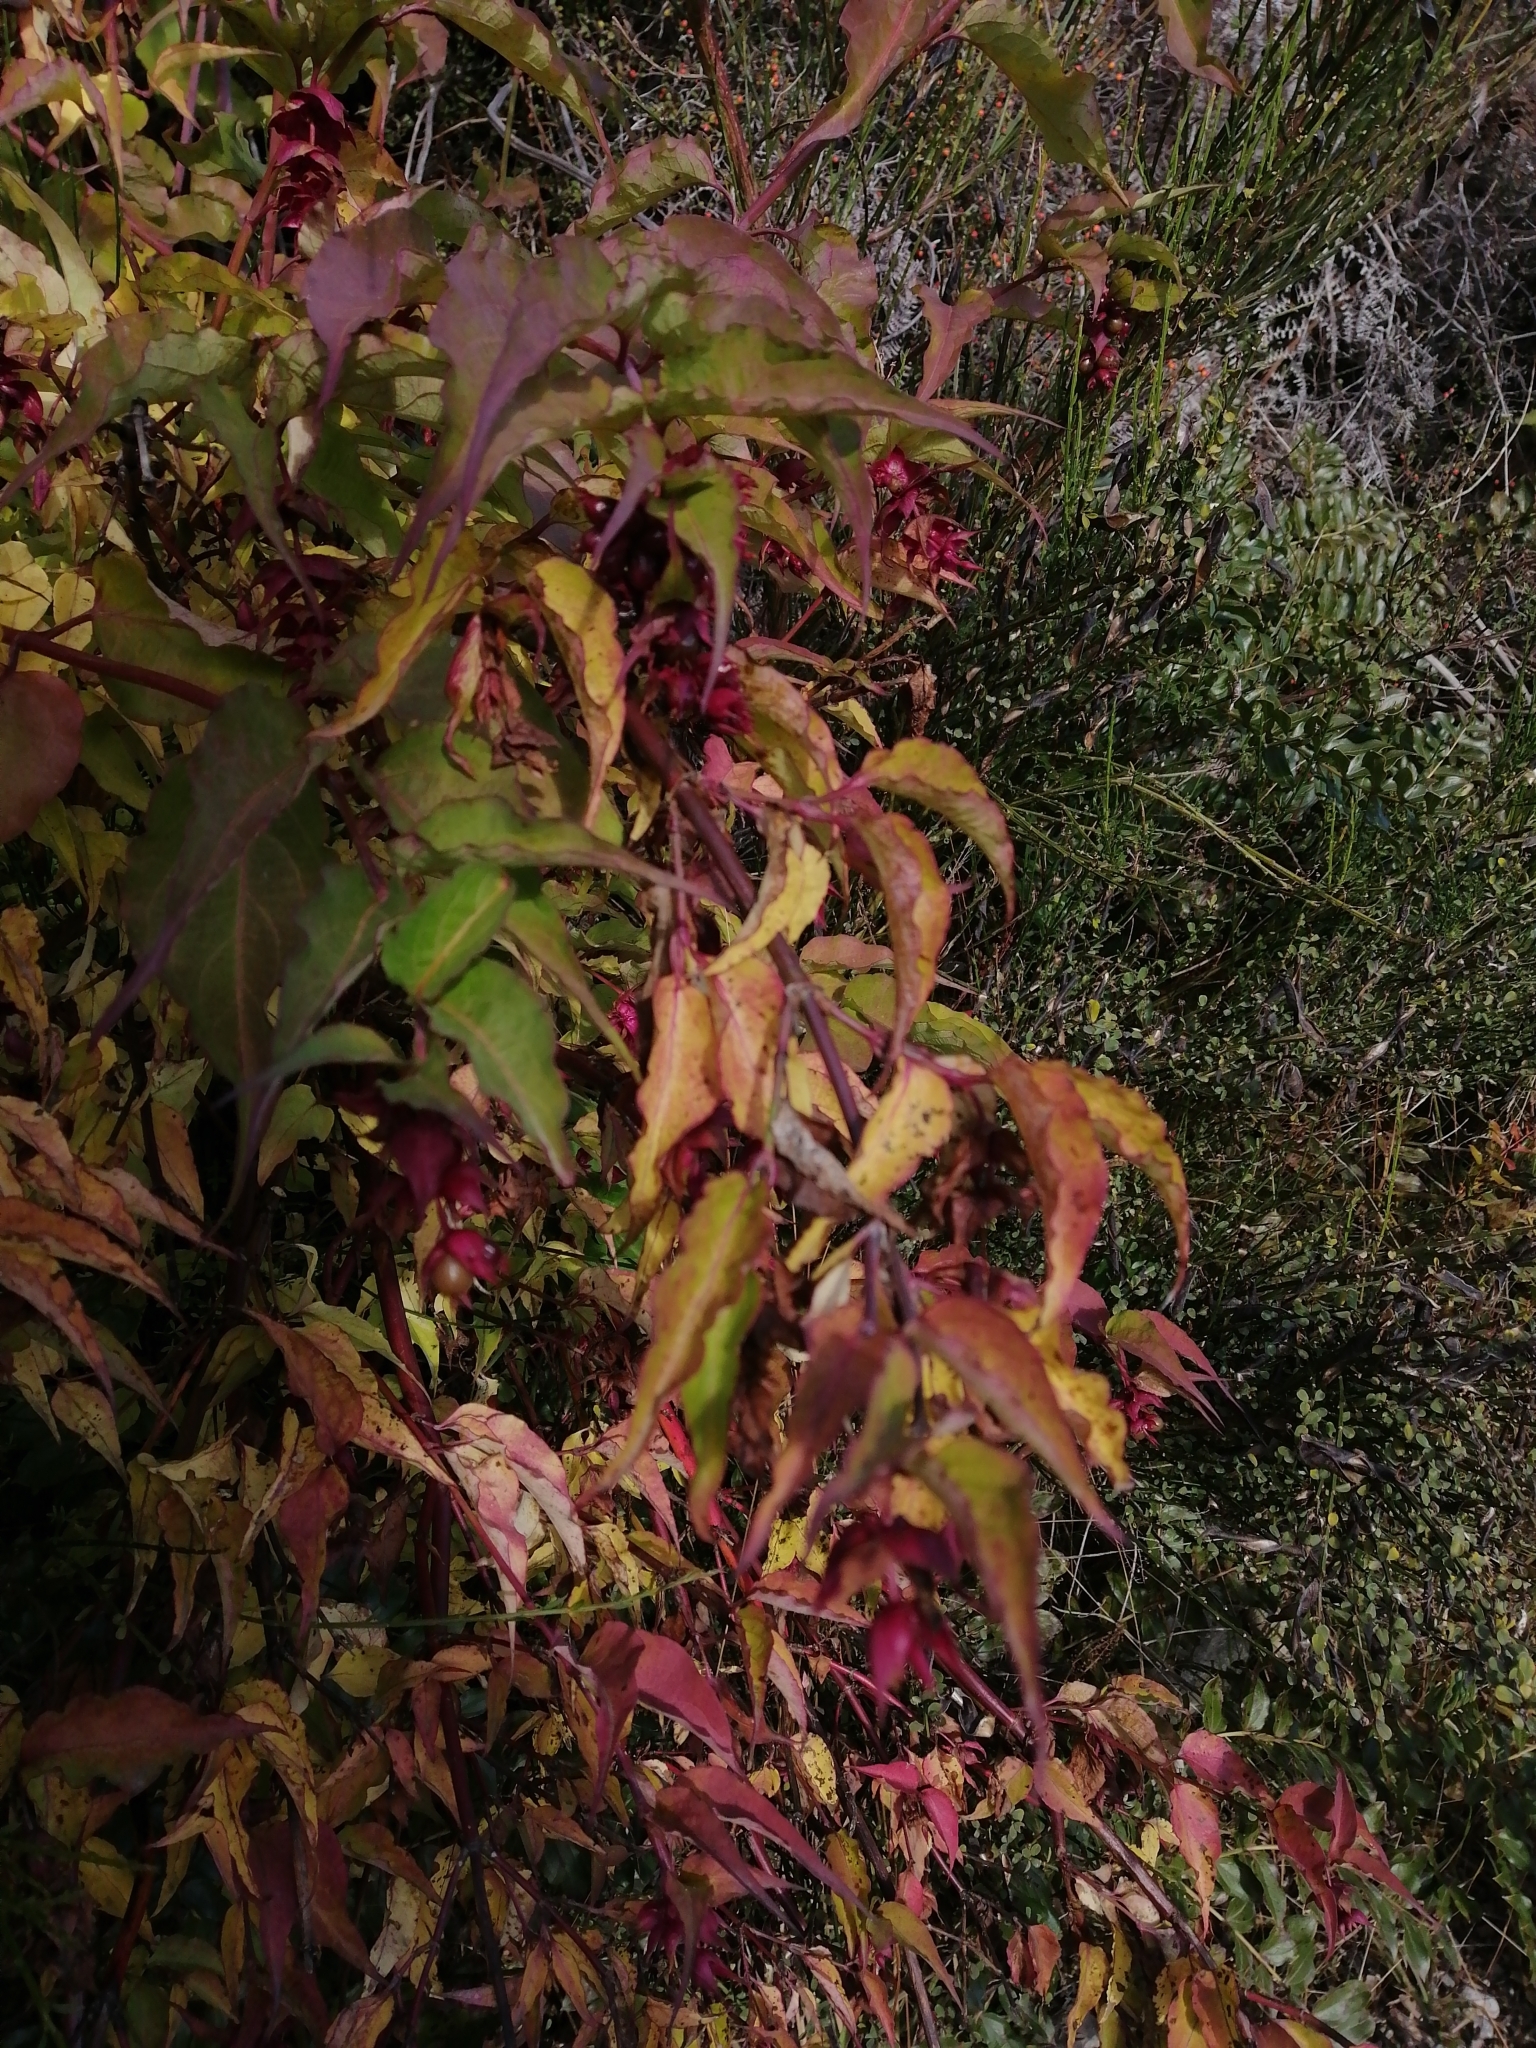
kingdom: Plantae
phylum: Tracheophyta
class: Magnoliopsida
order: Dipsacales
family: Caprifoliaceae
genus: Leycesteria
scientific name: Leycesteria formosa
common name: Himalayan honeysuckle
